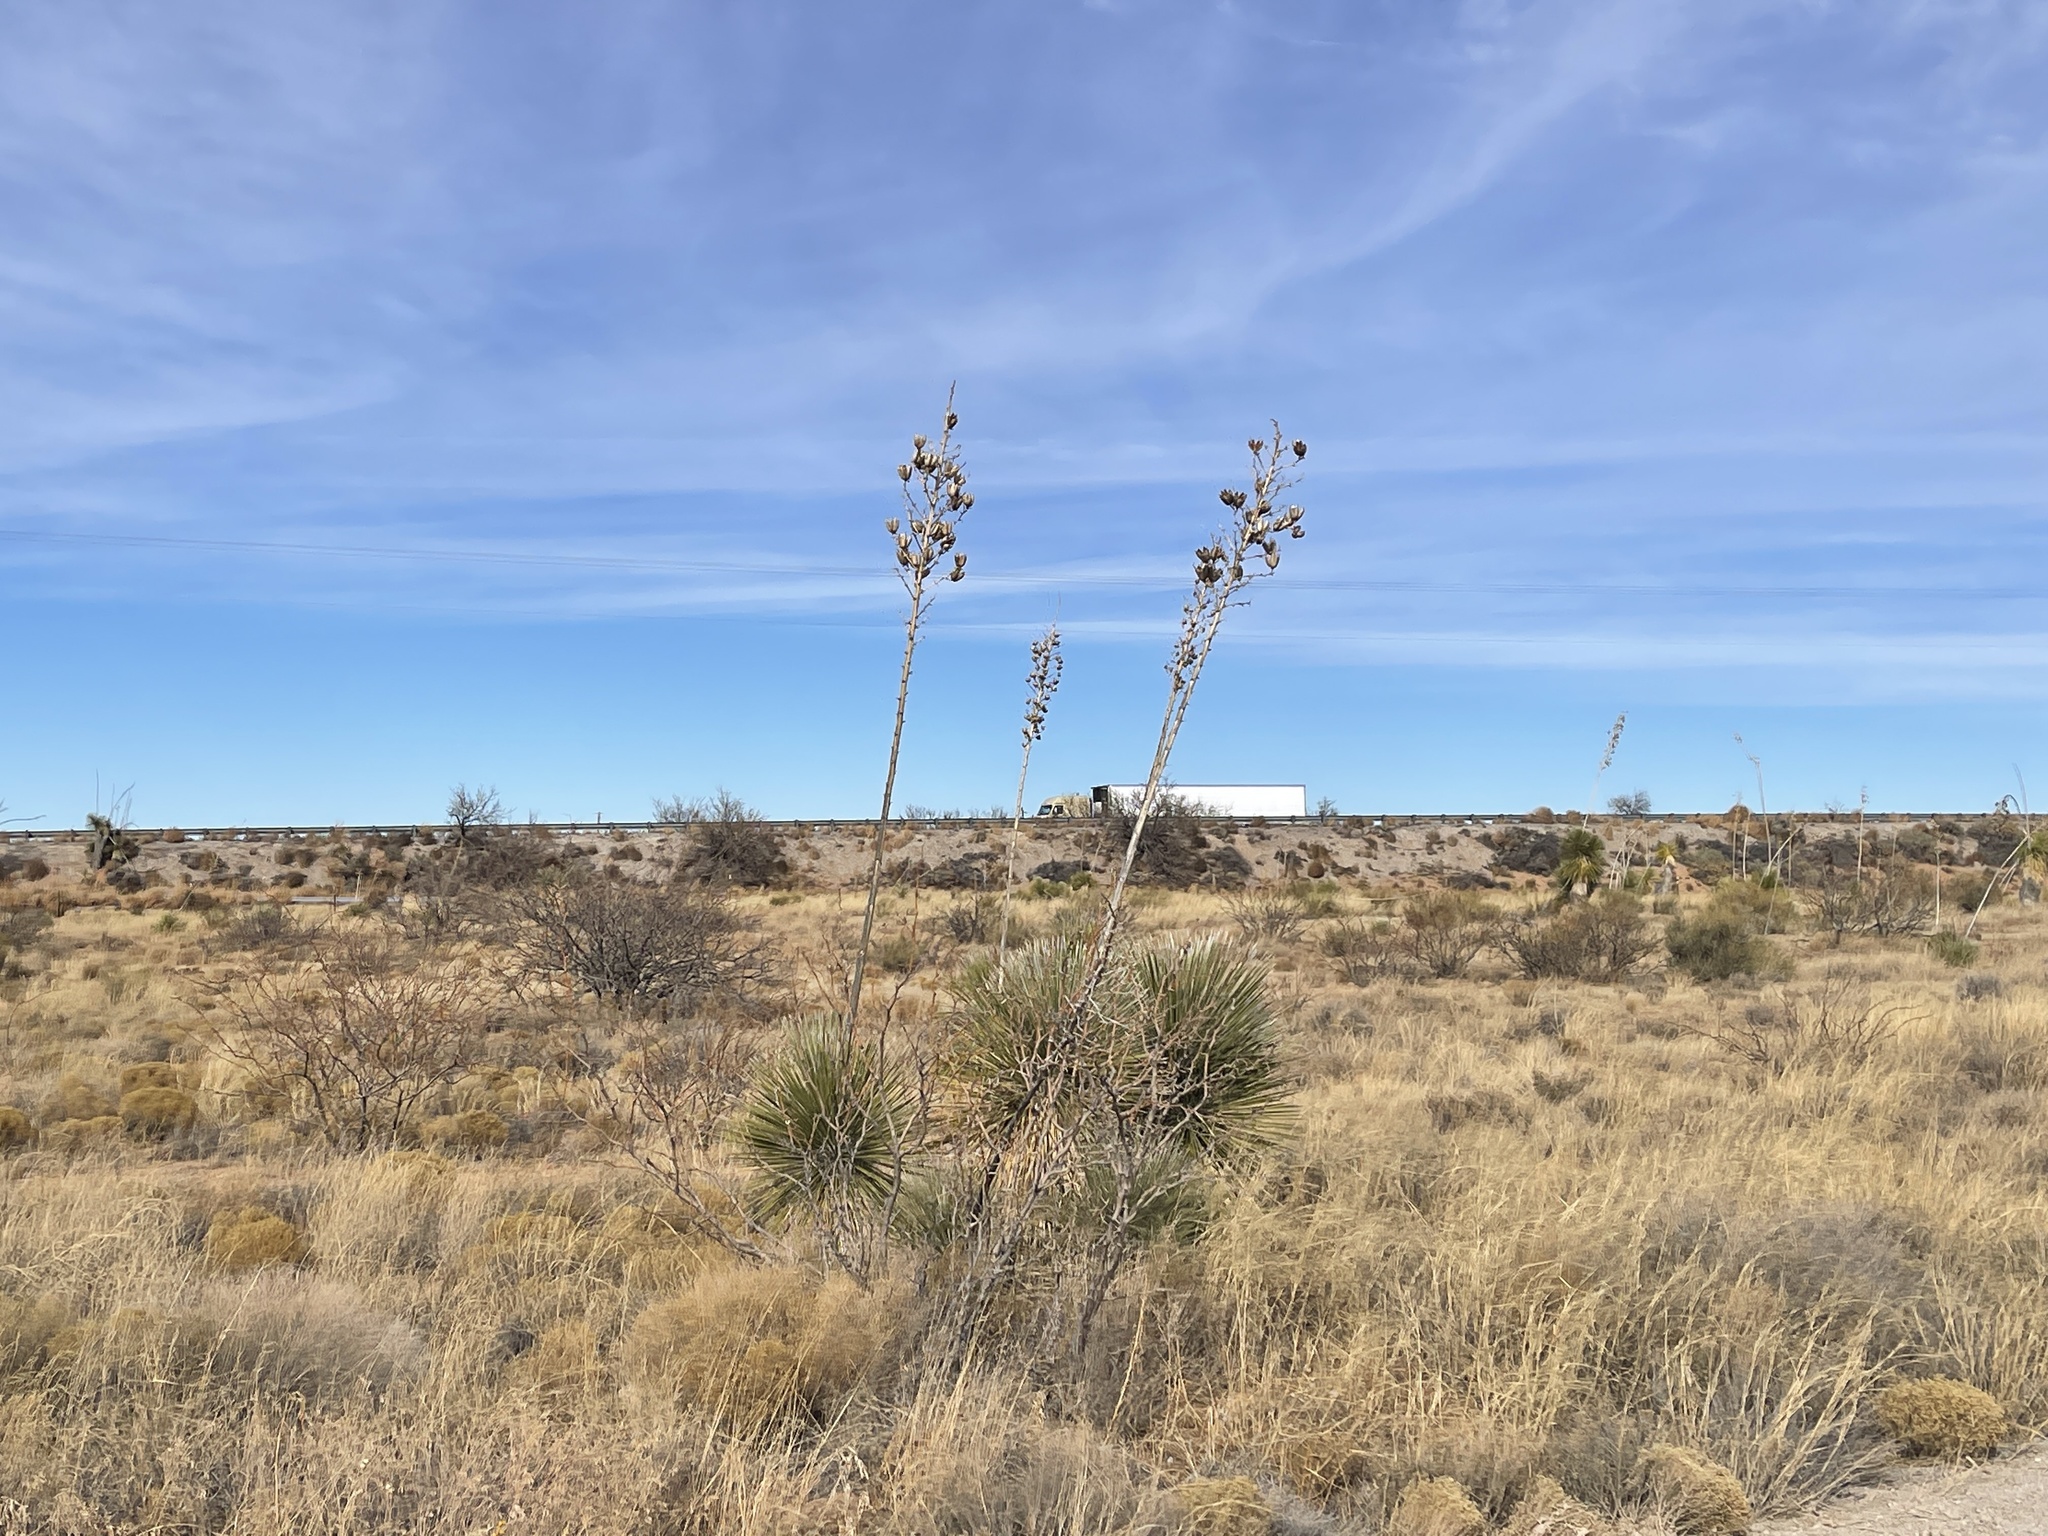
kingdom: Plantae
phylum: Tracheophyta
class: Liliopsida
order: Asparagales
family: Asparagaceae
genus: Yucca
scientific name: Yucca elata
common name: Palmella
